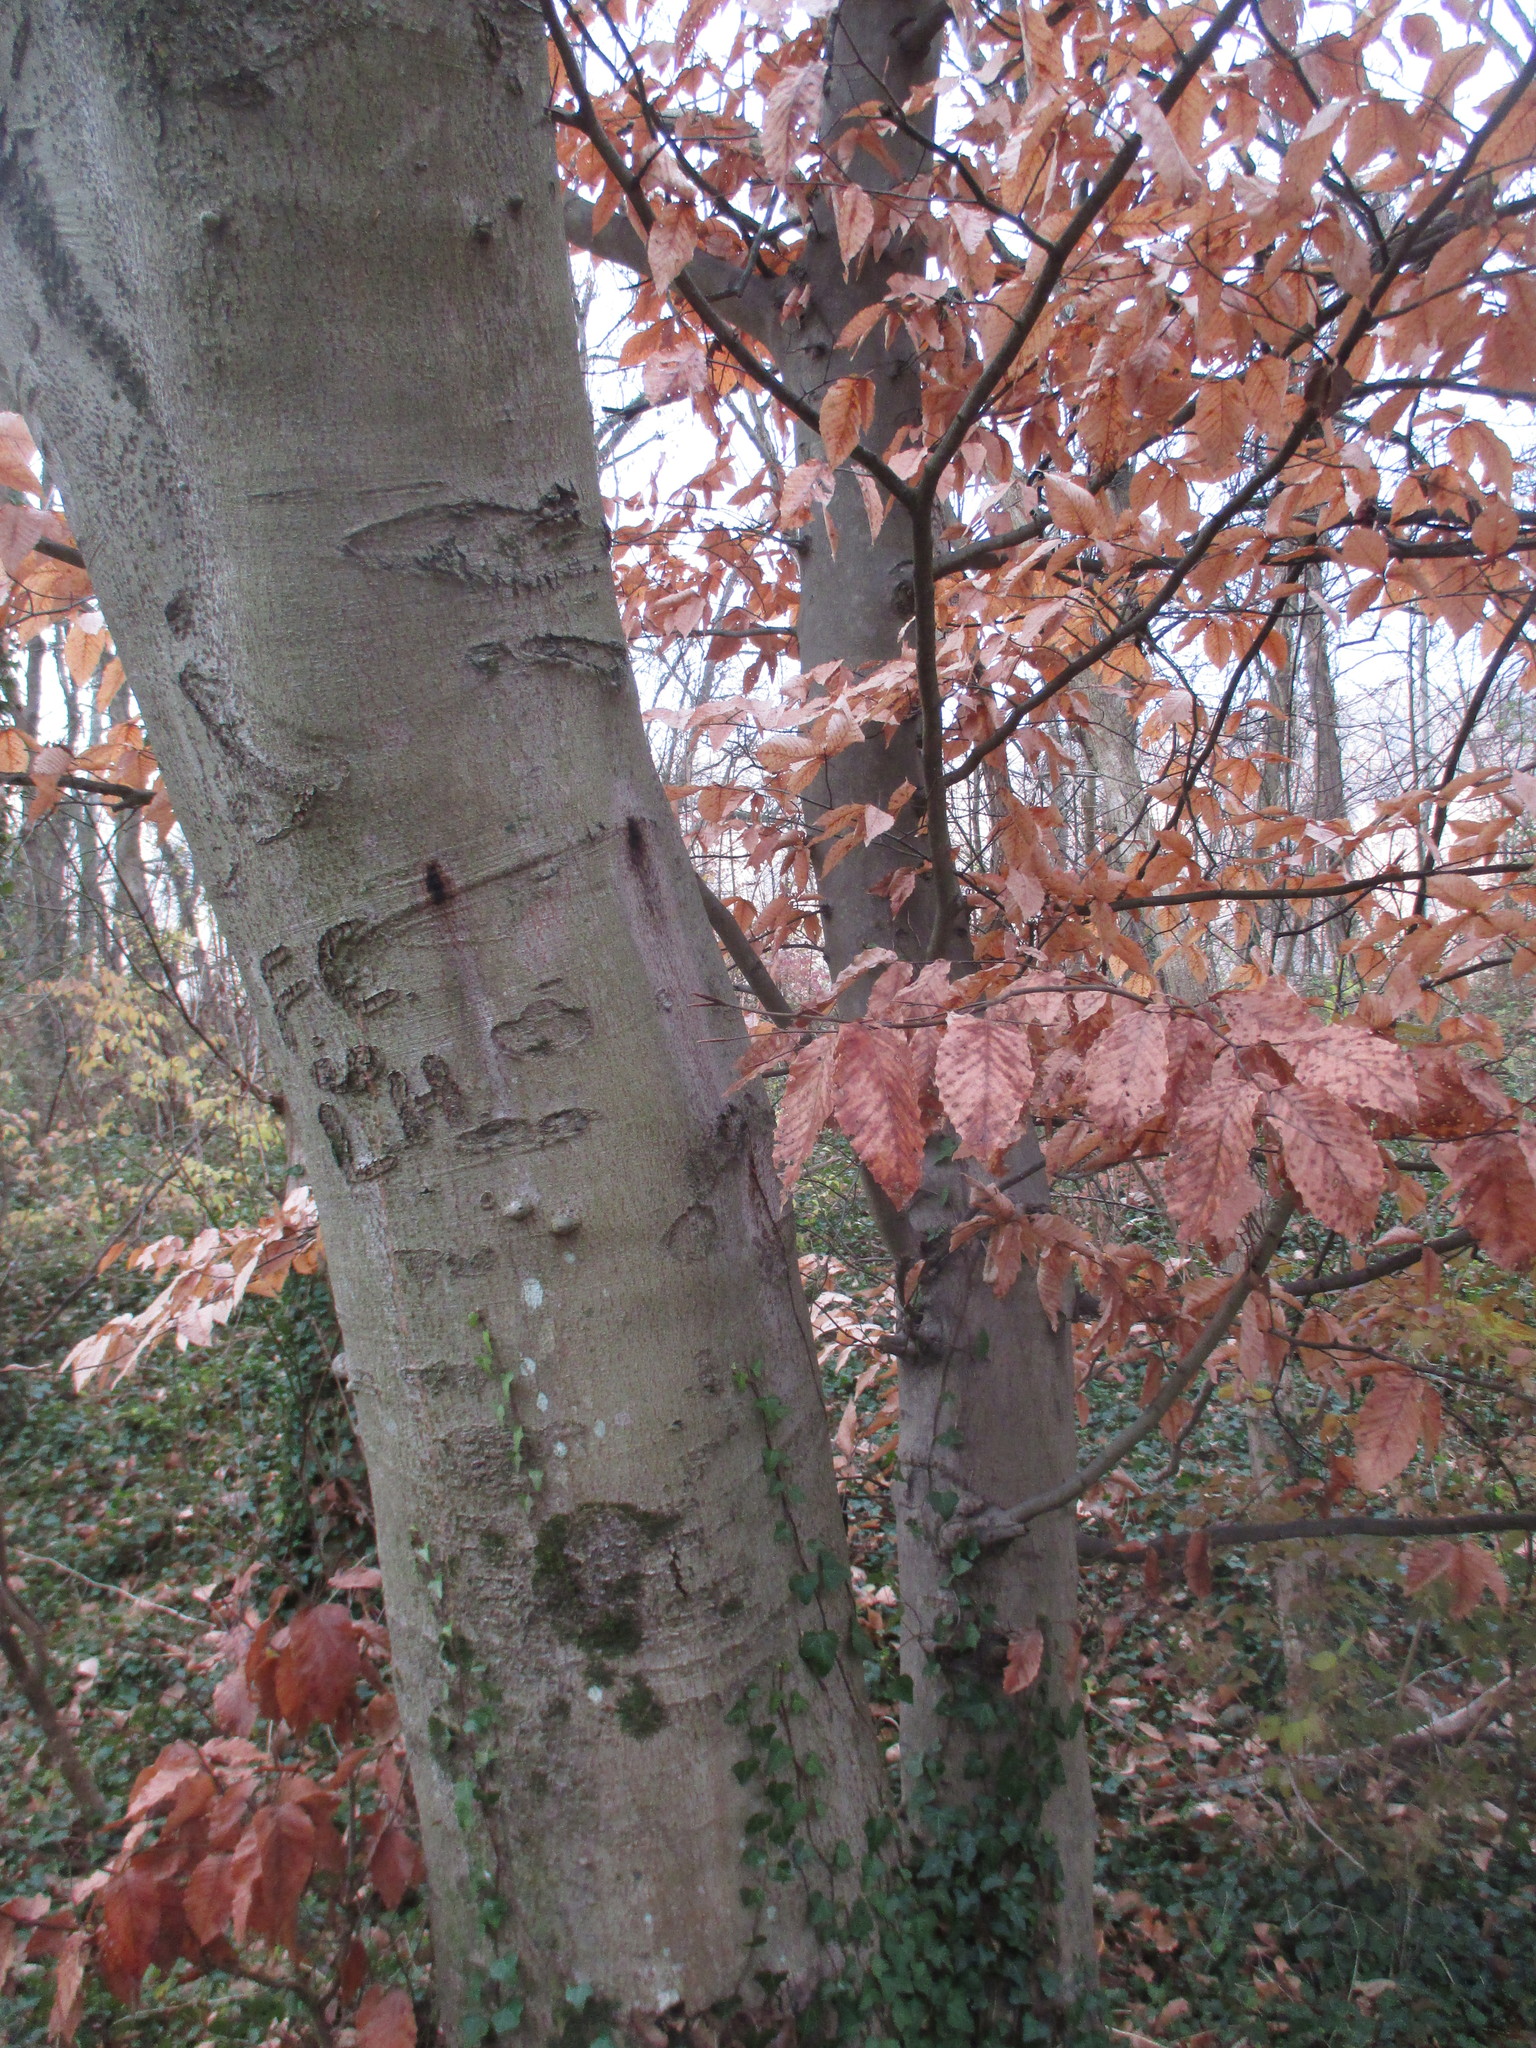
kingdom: Plantae
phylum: Tracheophyta
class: Magnoliopsida
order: Fagales
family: Fagaceae
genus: Fagus
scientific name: Fagus grandifolia
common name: American beech
